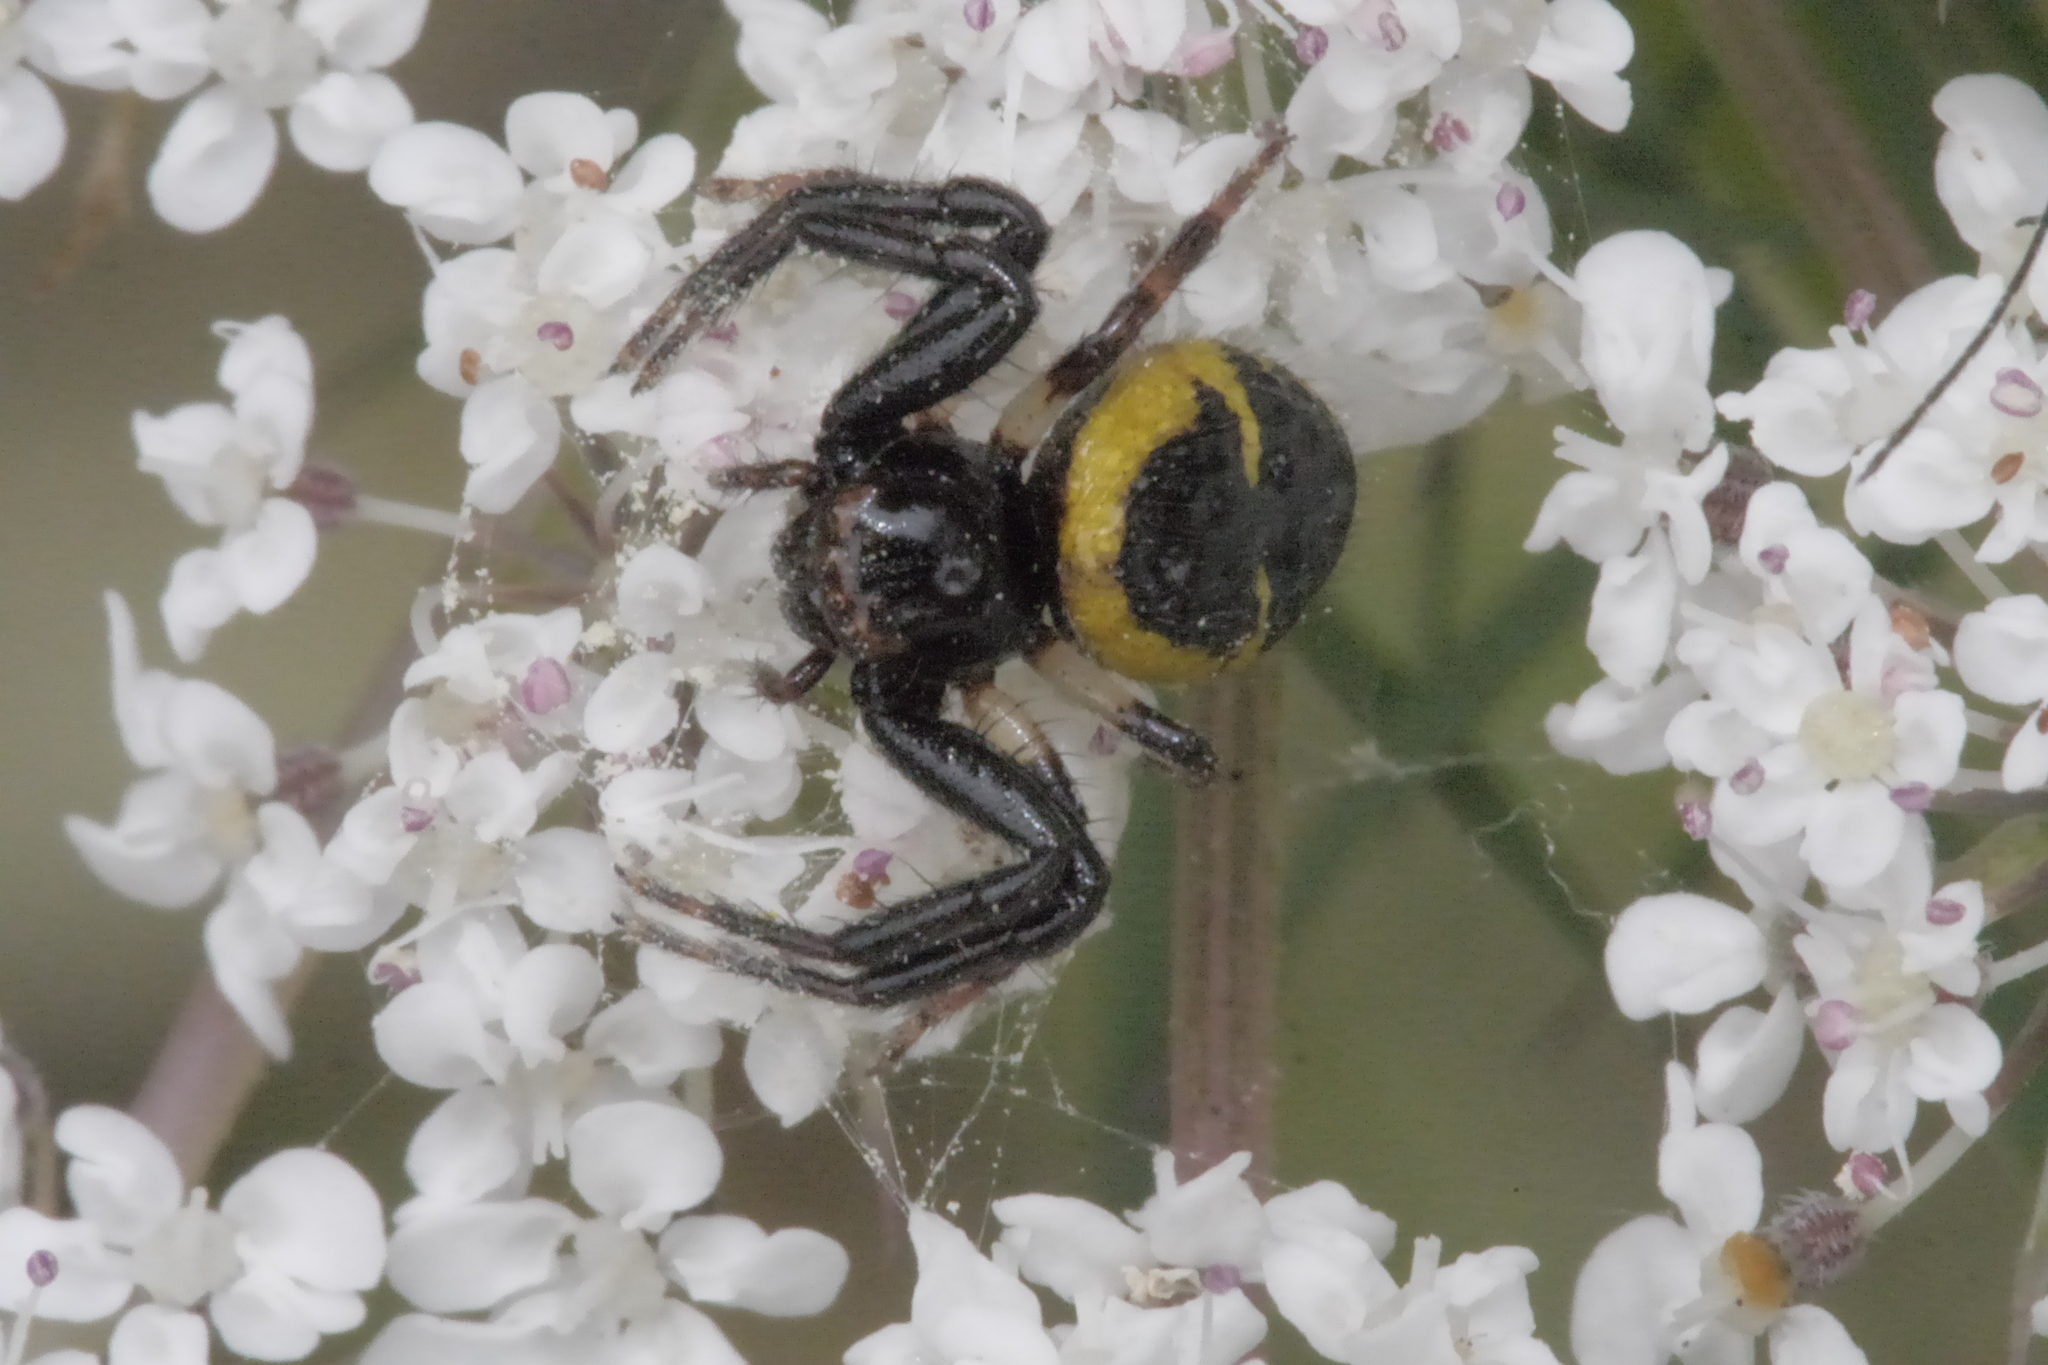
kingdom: Animalia
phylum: Arthropoda
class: Arachnida
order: Araneae
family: Thomisidae
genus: Synema
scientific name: Synema globosum
